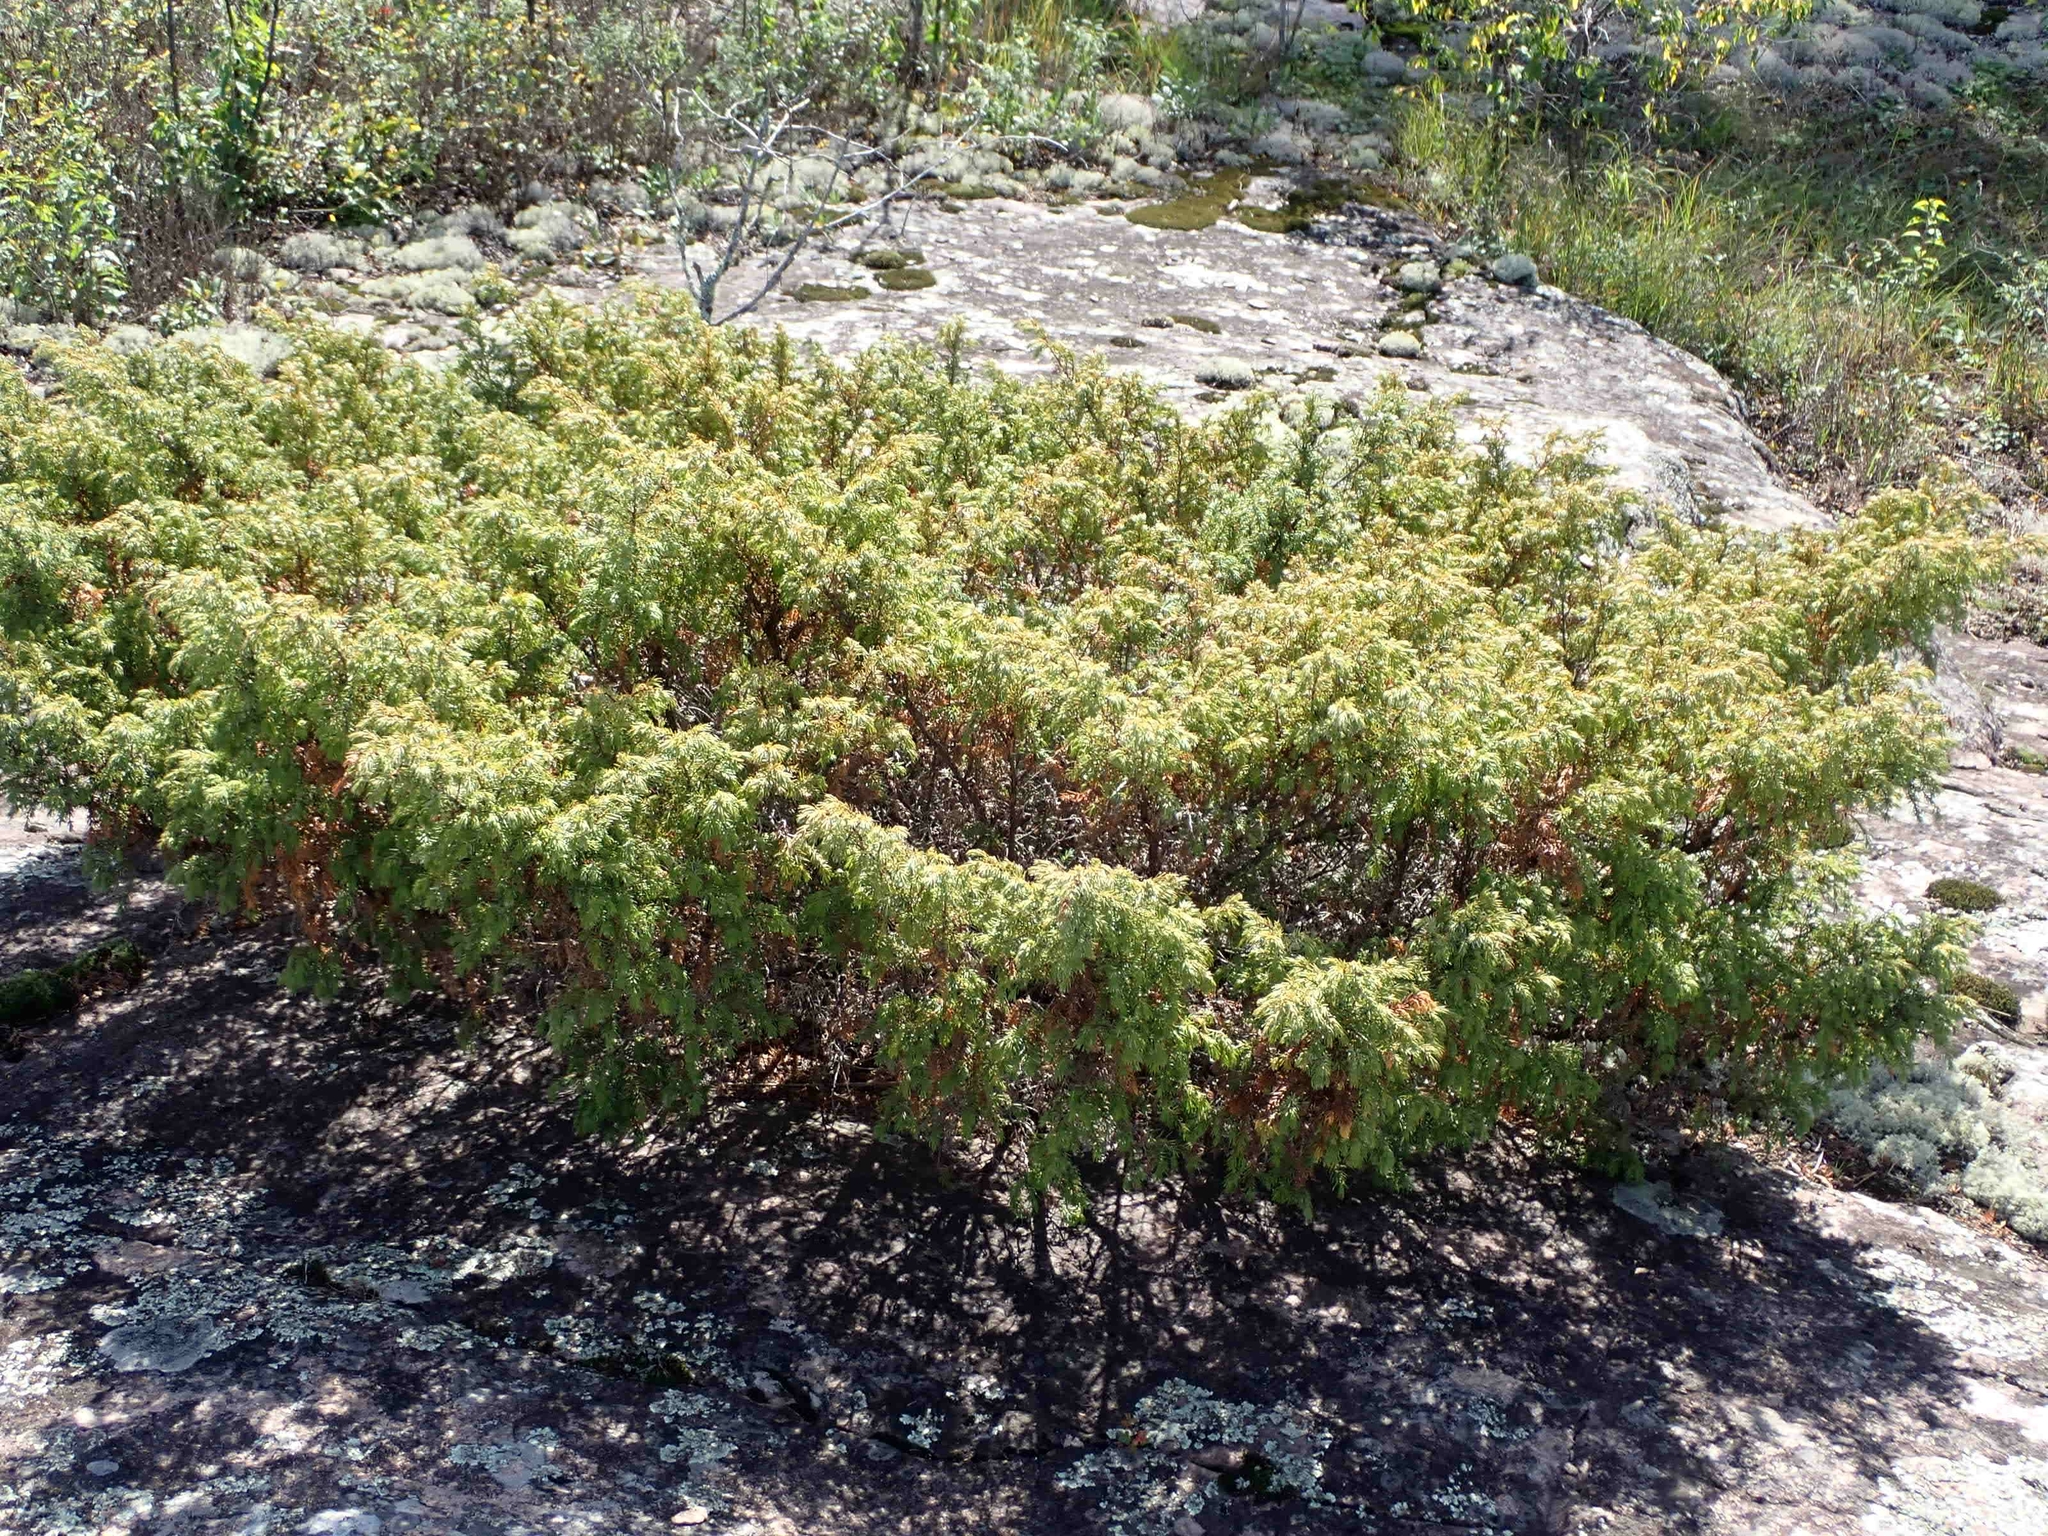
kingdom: Plantae
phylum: Tracheophyta
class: Pinopsida
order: Pinales
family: Cupressaceae
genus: Juniperus
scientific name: Juniperus communis
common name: Common juniper
